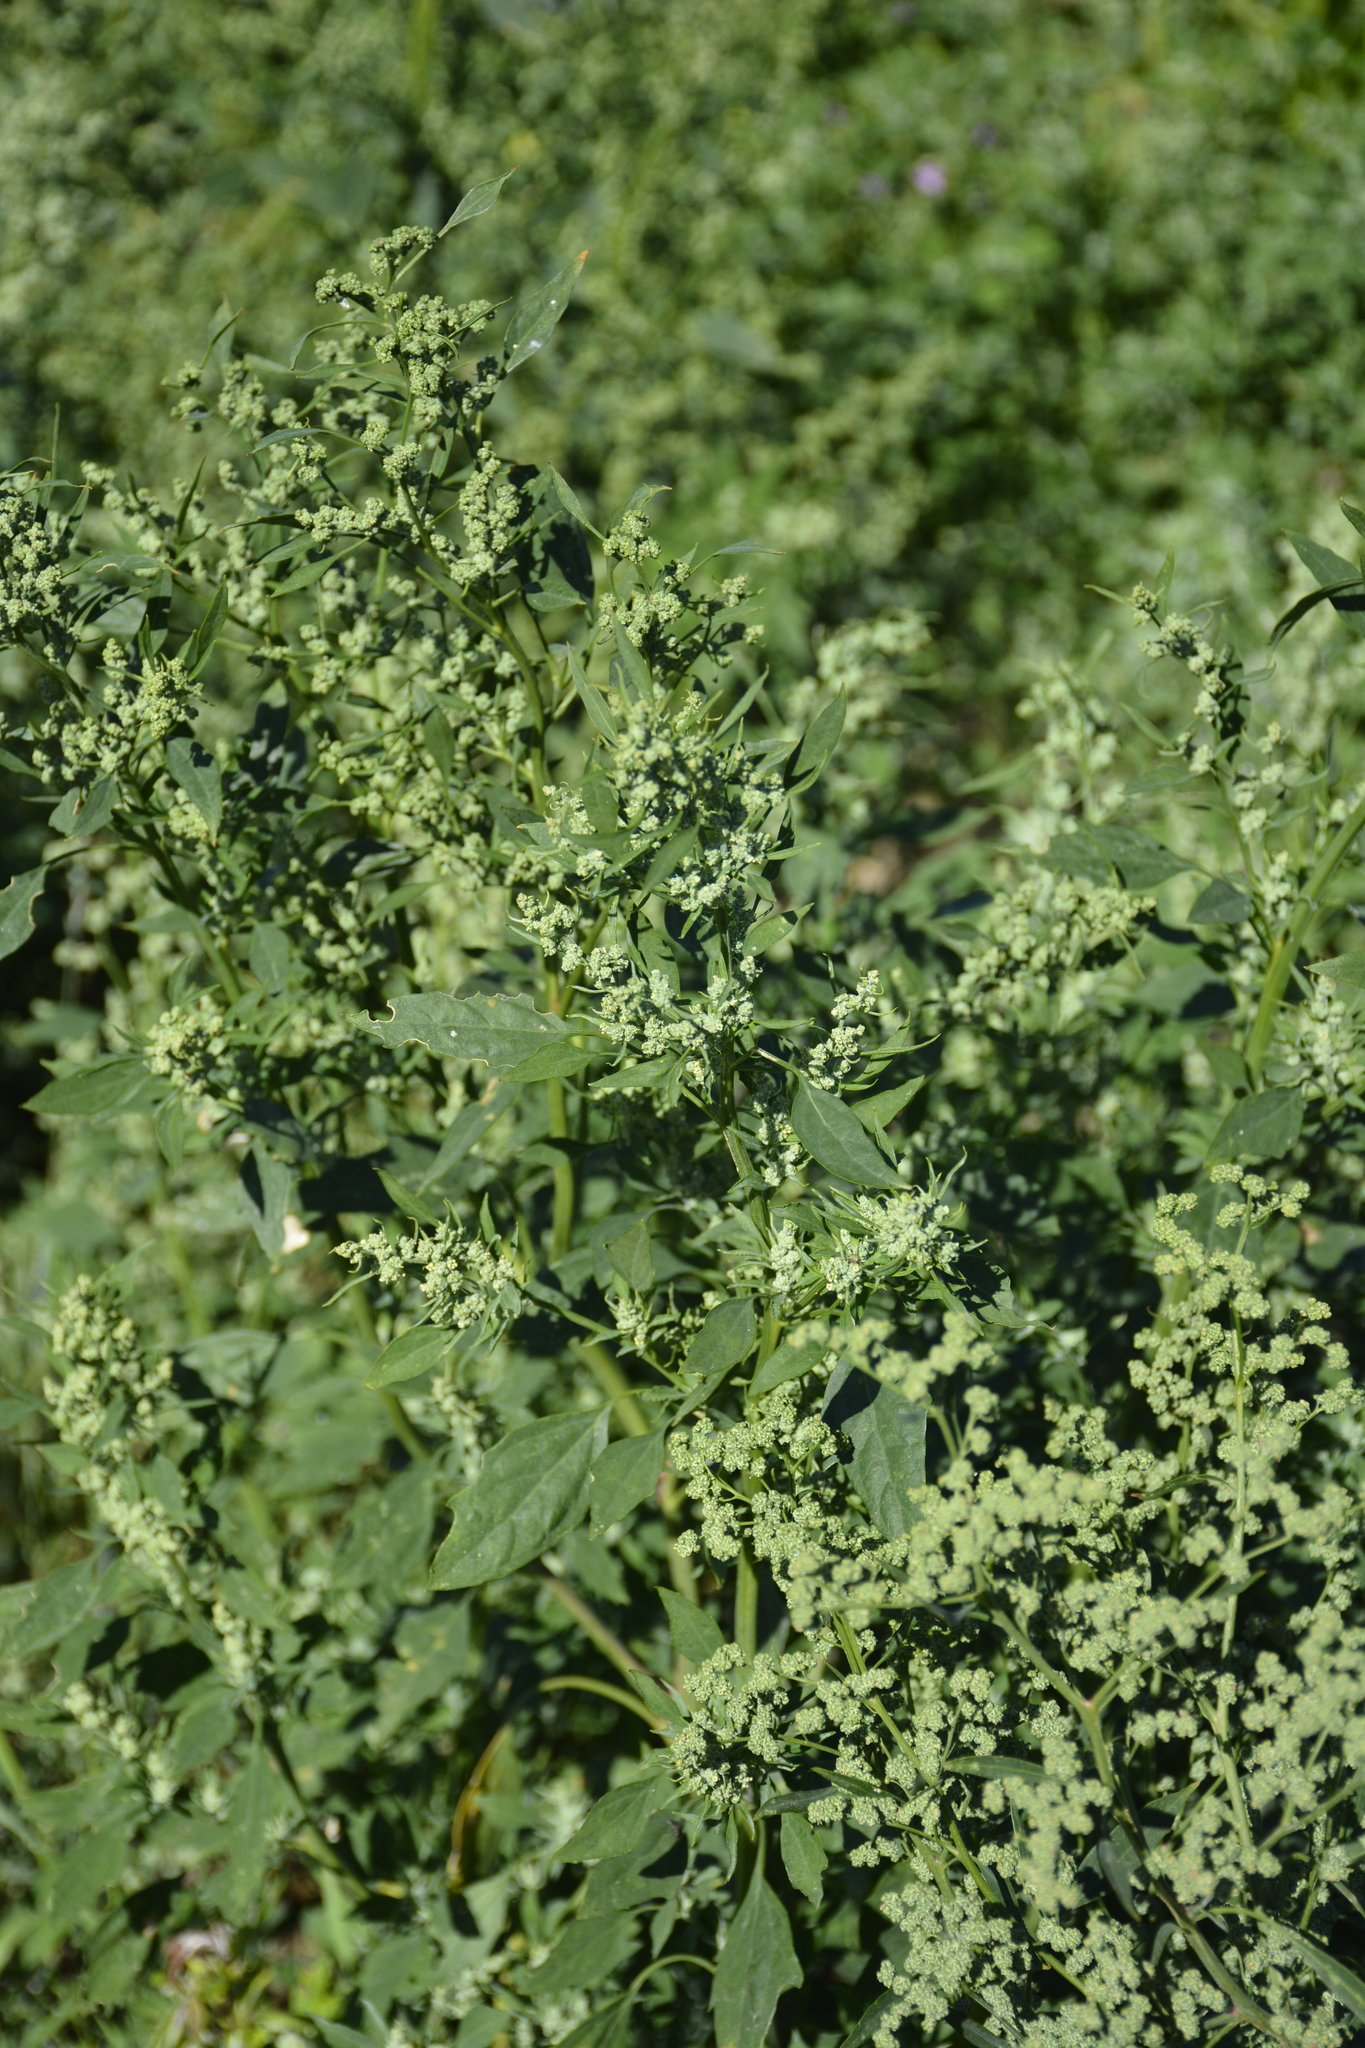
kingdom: Plantae
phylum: Tracheophyta
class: Magnoliopsida
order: Caryophyllales
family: Amaranthaceae
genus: Chenopodium
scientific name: Chenopodium album
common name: Fat-hen
